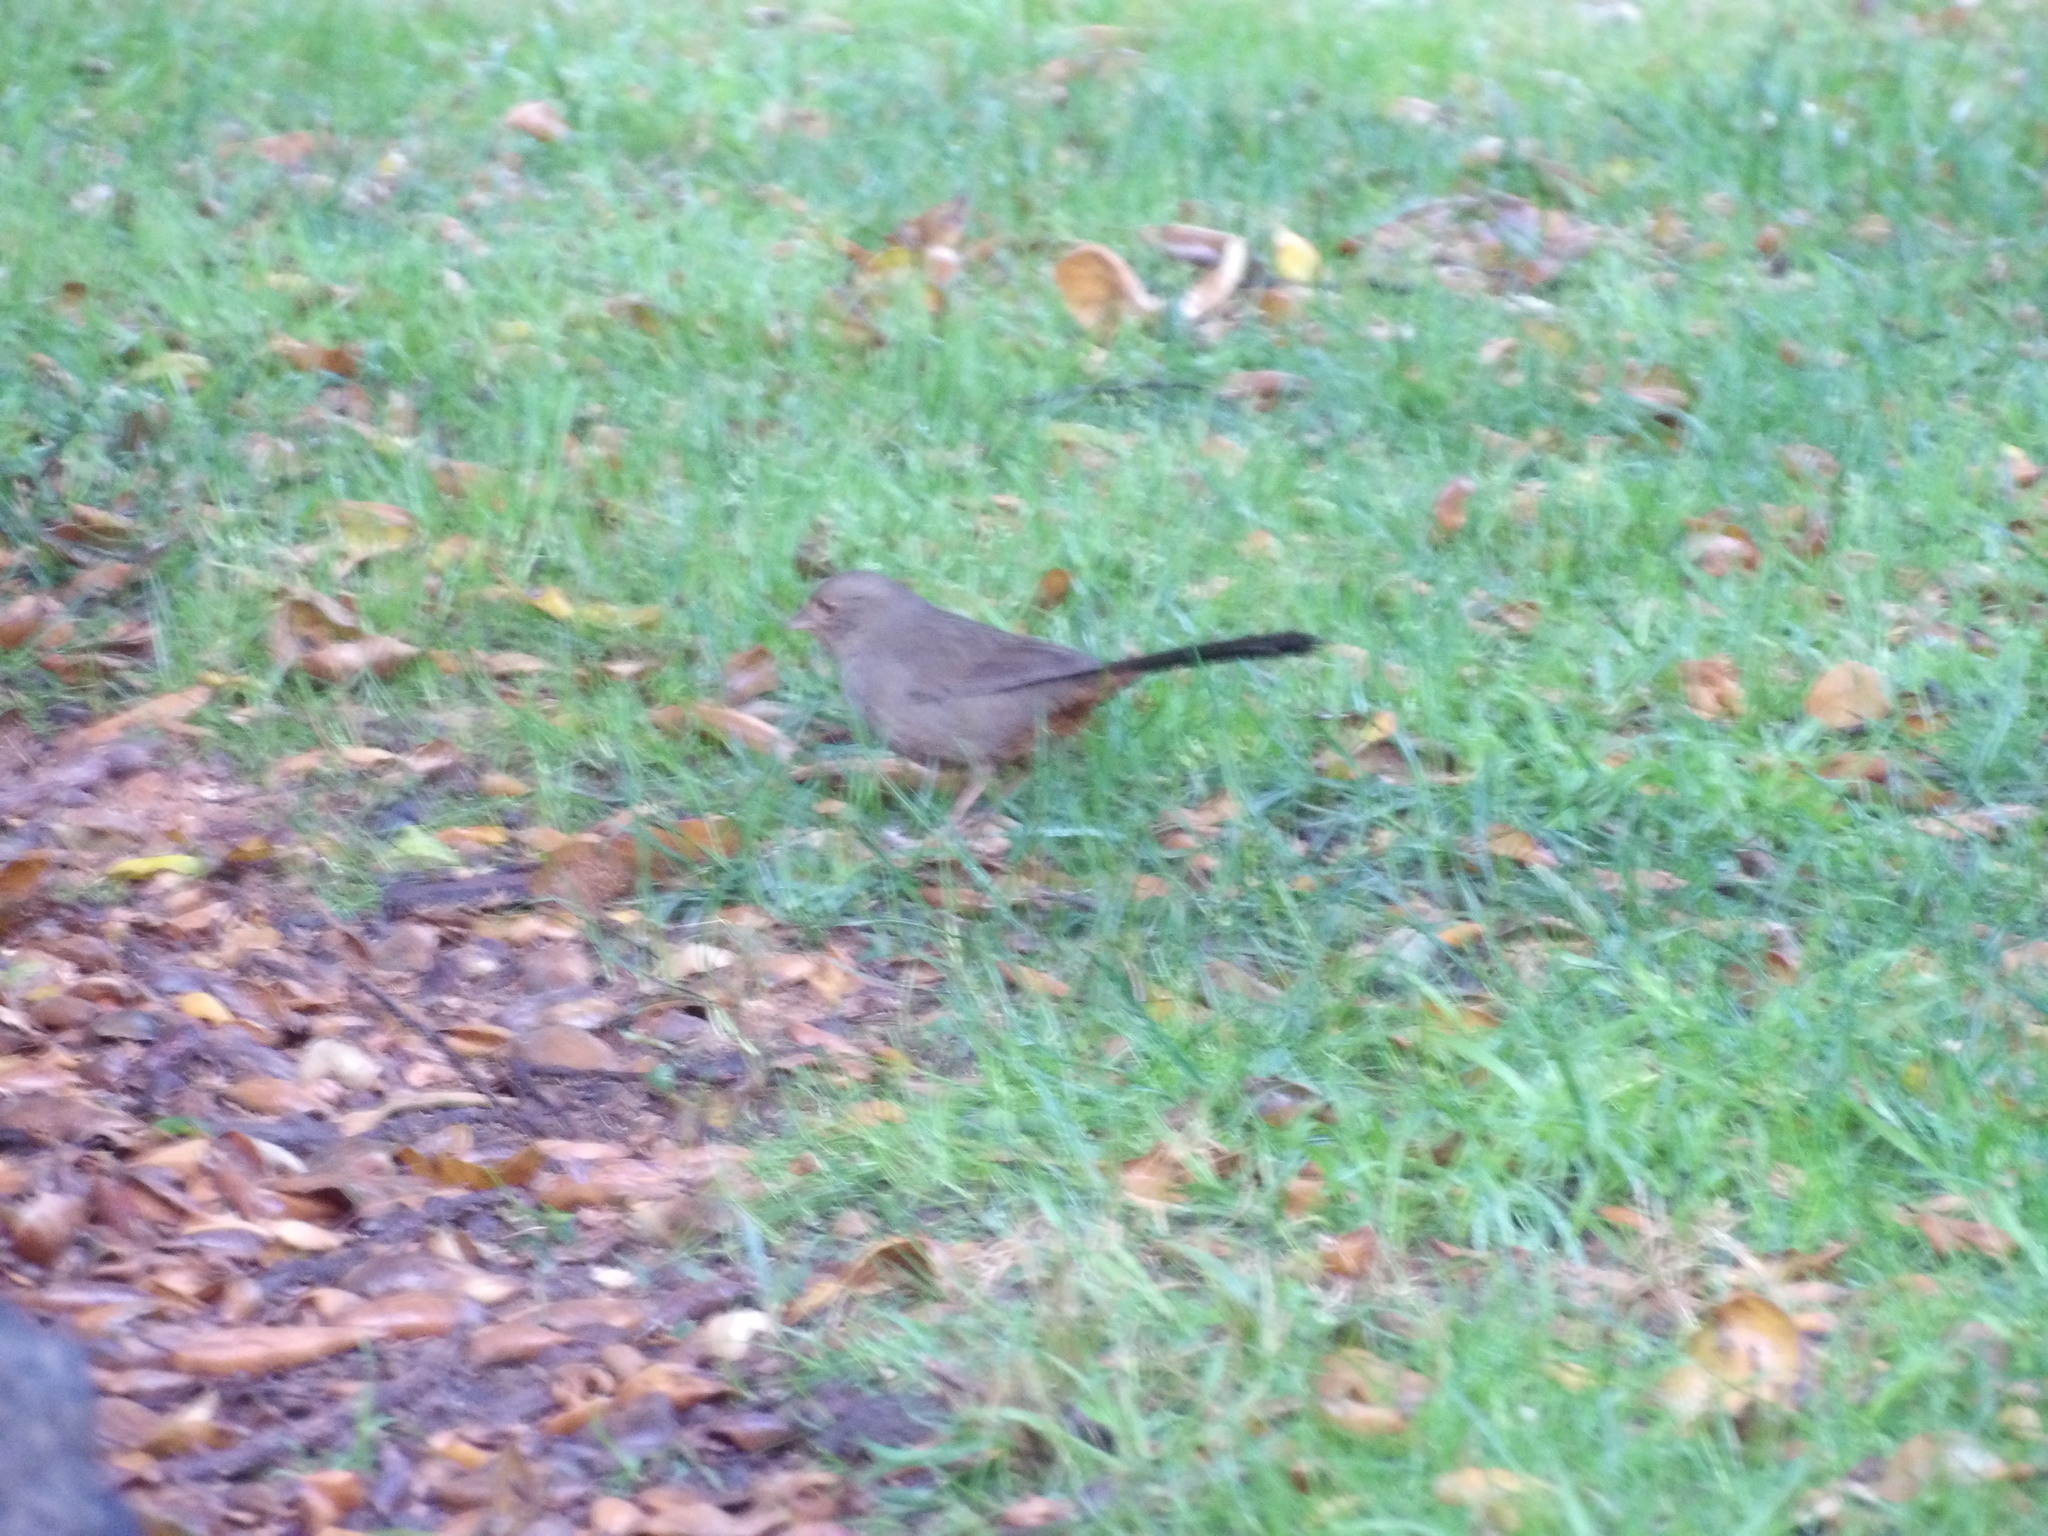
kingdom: Animalia
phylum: Chordata
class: Aves
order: Passeriformes
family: Passerellidae
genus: Melozone
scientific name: Melozone crissalis
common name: California towhee
